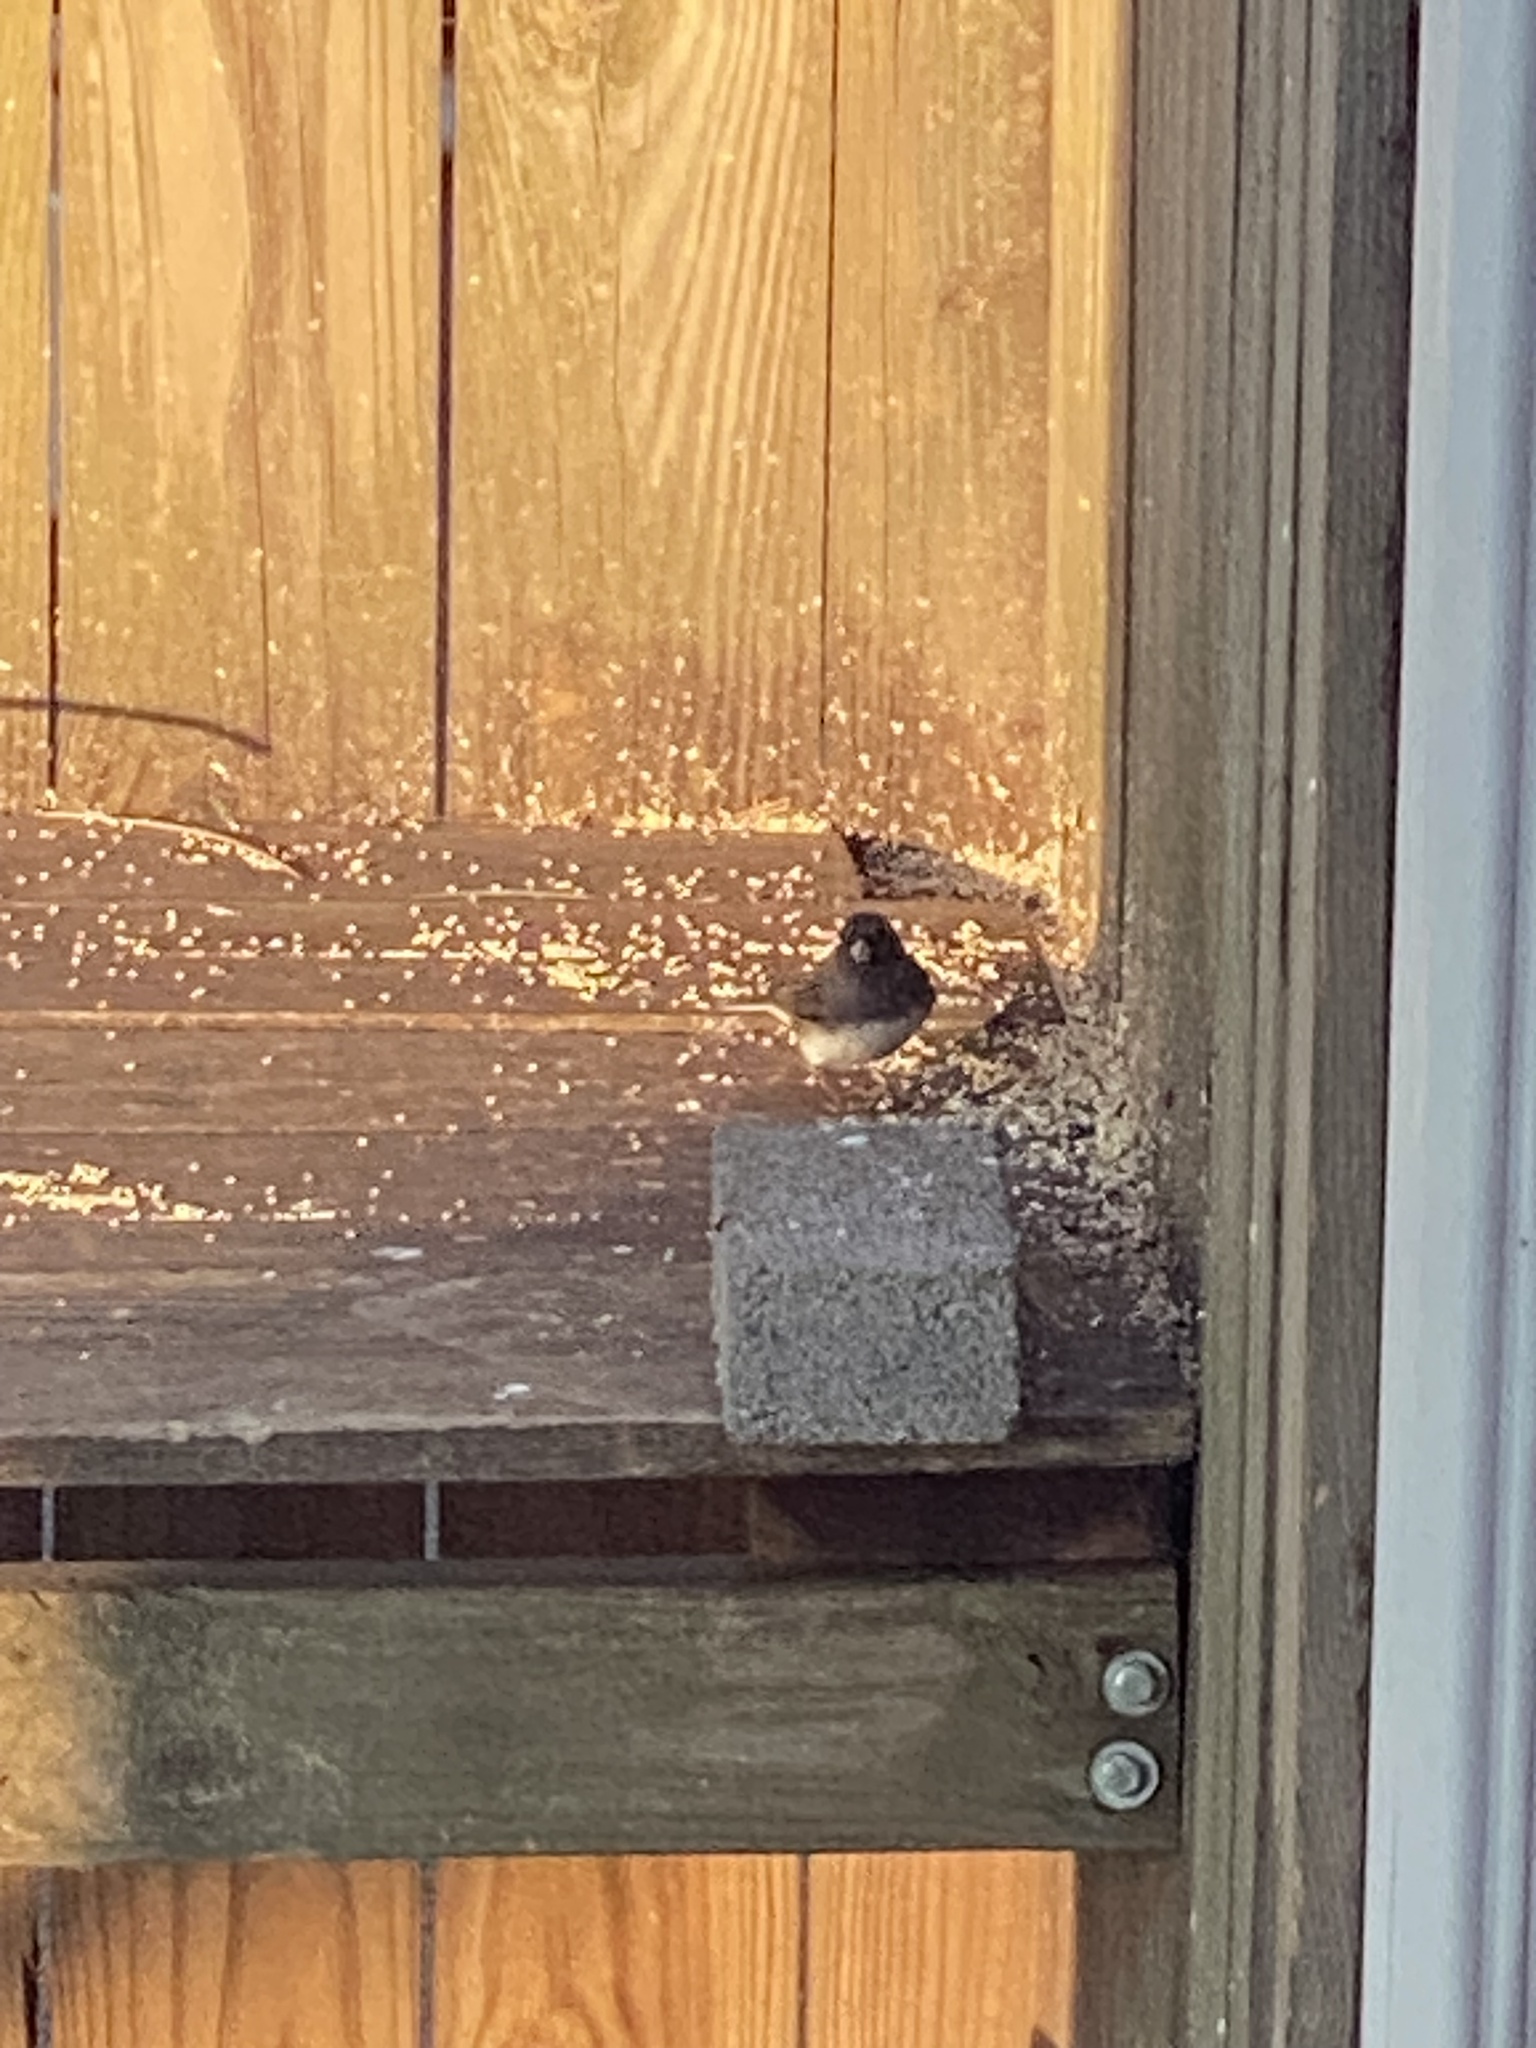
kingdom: Animalia
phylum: Chordata
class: Aves
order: Passeriformes
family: Passerellidae
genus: Junco
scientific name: Junco hyemalis
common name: Dark-eyed junco
